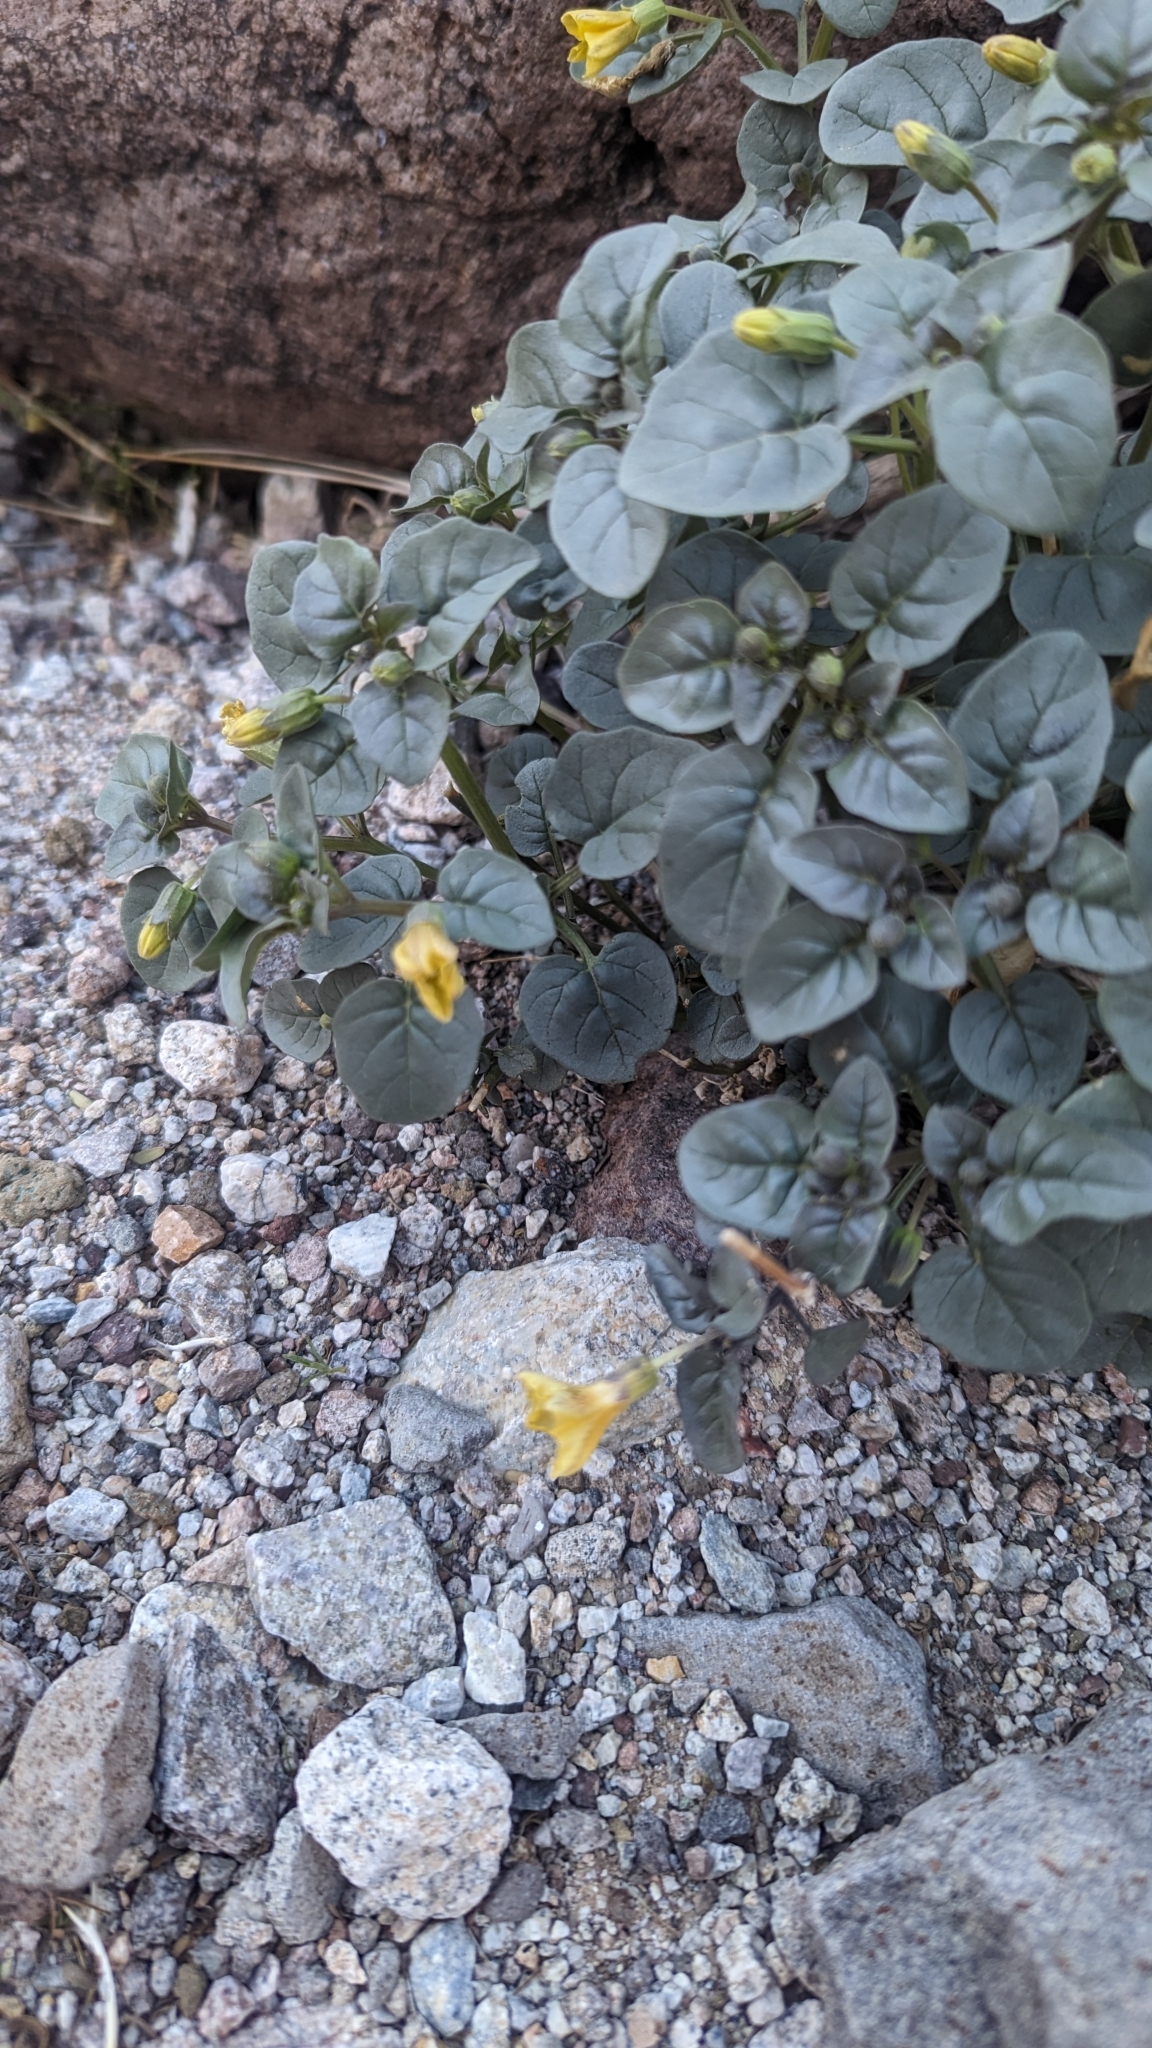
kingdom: Plantae
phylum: Tracheophyta
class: Magnoliopsida
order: Solanales
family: Solanaceae
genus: Physalis
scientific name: Physalis crassifolia
